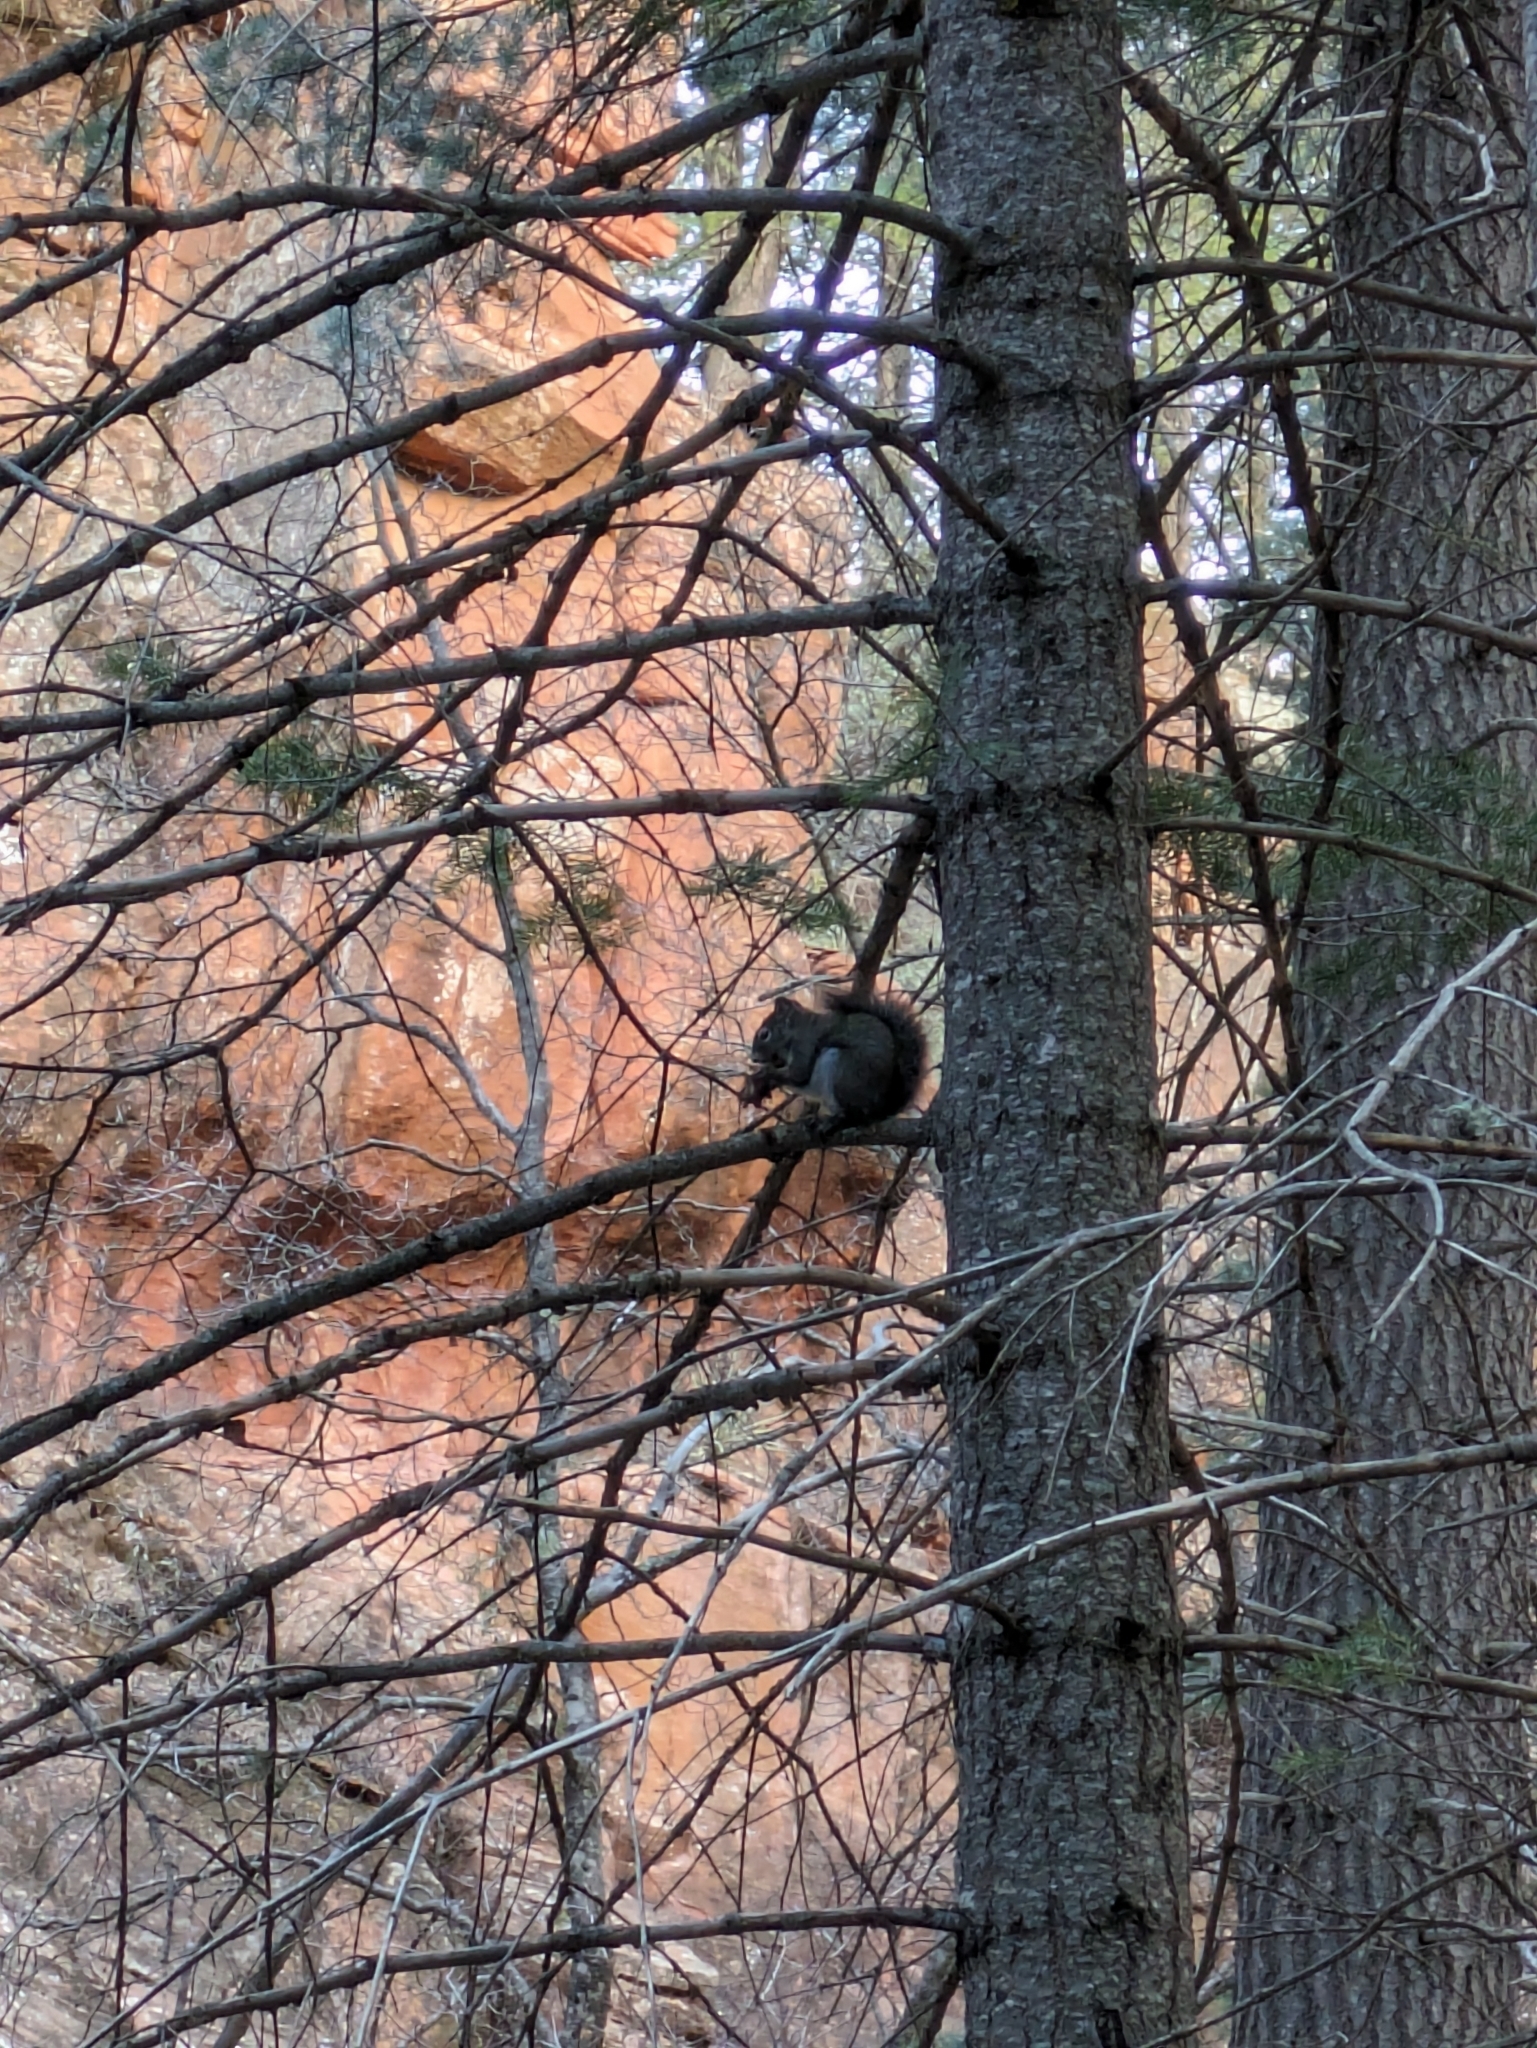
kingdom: Animalia
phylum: Chordata
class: Mammalia
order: Rodentia
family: Sciuridae
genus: Tamiasciurus
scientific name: Tamiasciurus hudsonicus
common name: Red squirrel
